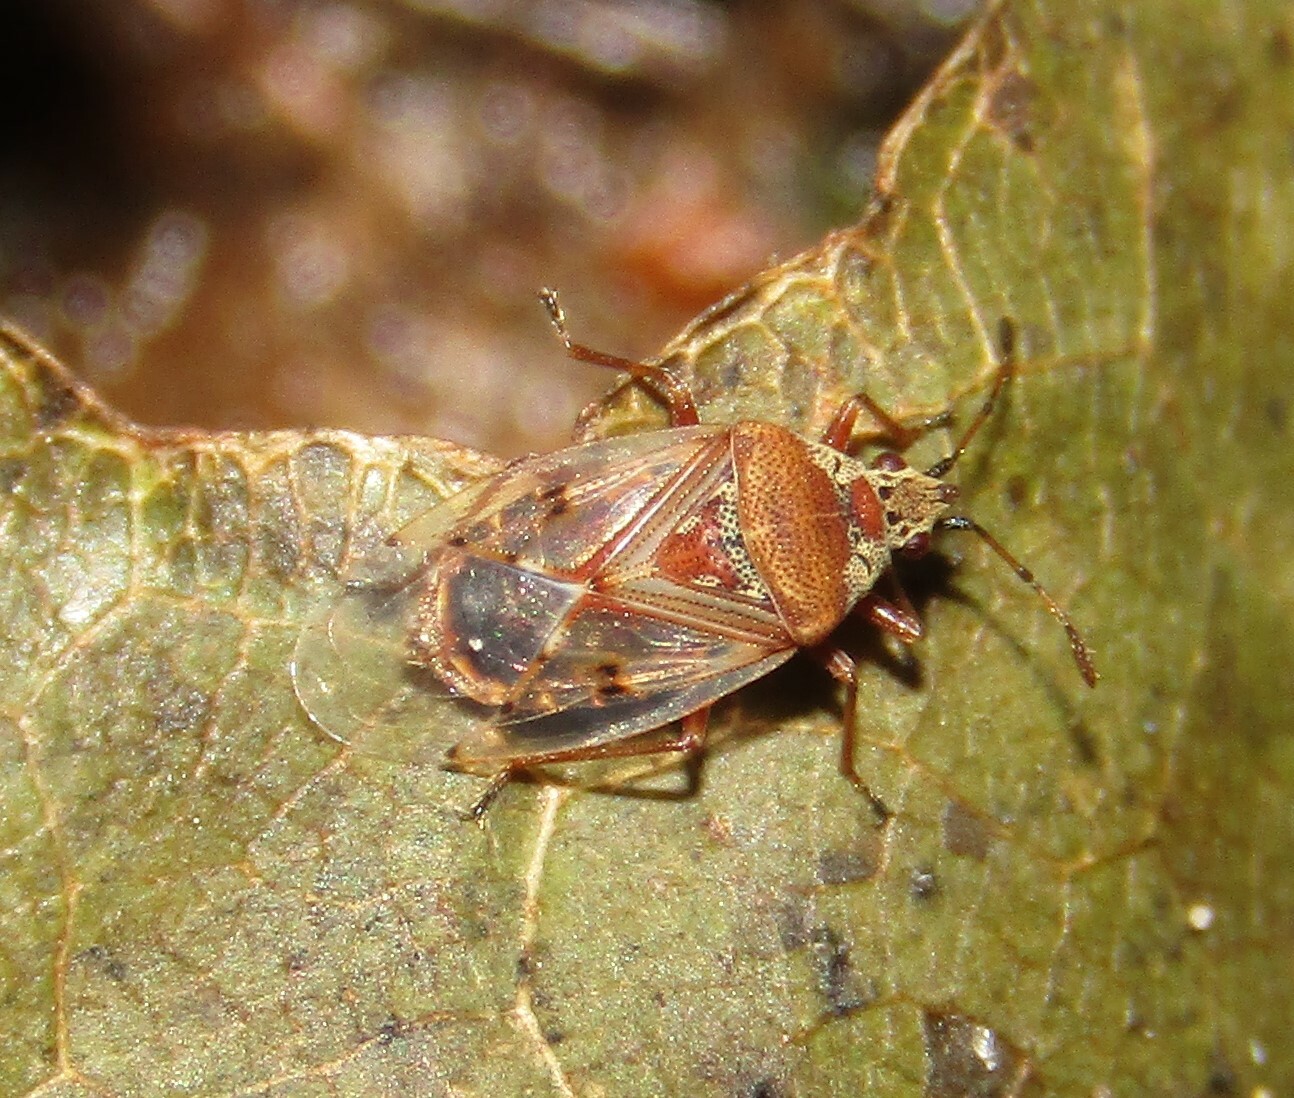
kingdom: Animalia
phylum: Arthropoda
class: Insecta
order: Hemiptera
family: Lygaeidae
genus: Kleidocerys
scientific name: Kleidocerys resedae
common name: Birch catkin bug
